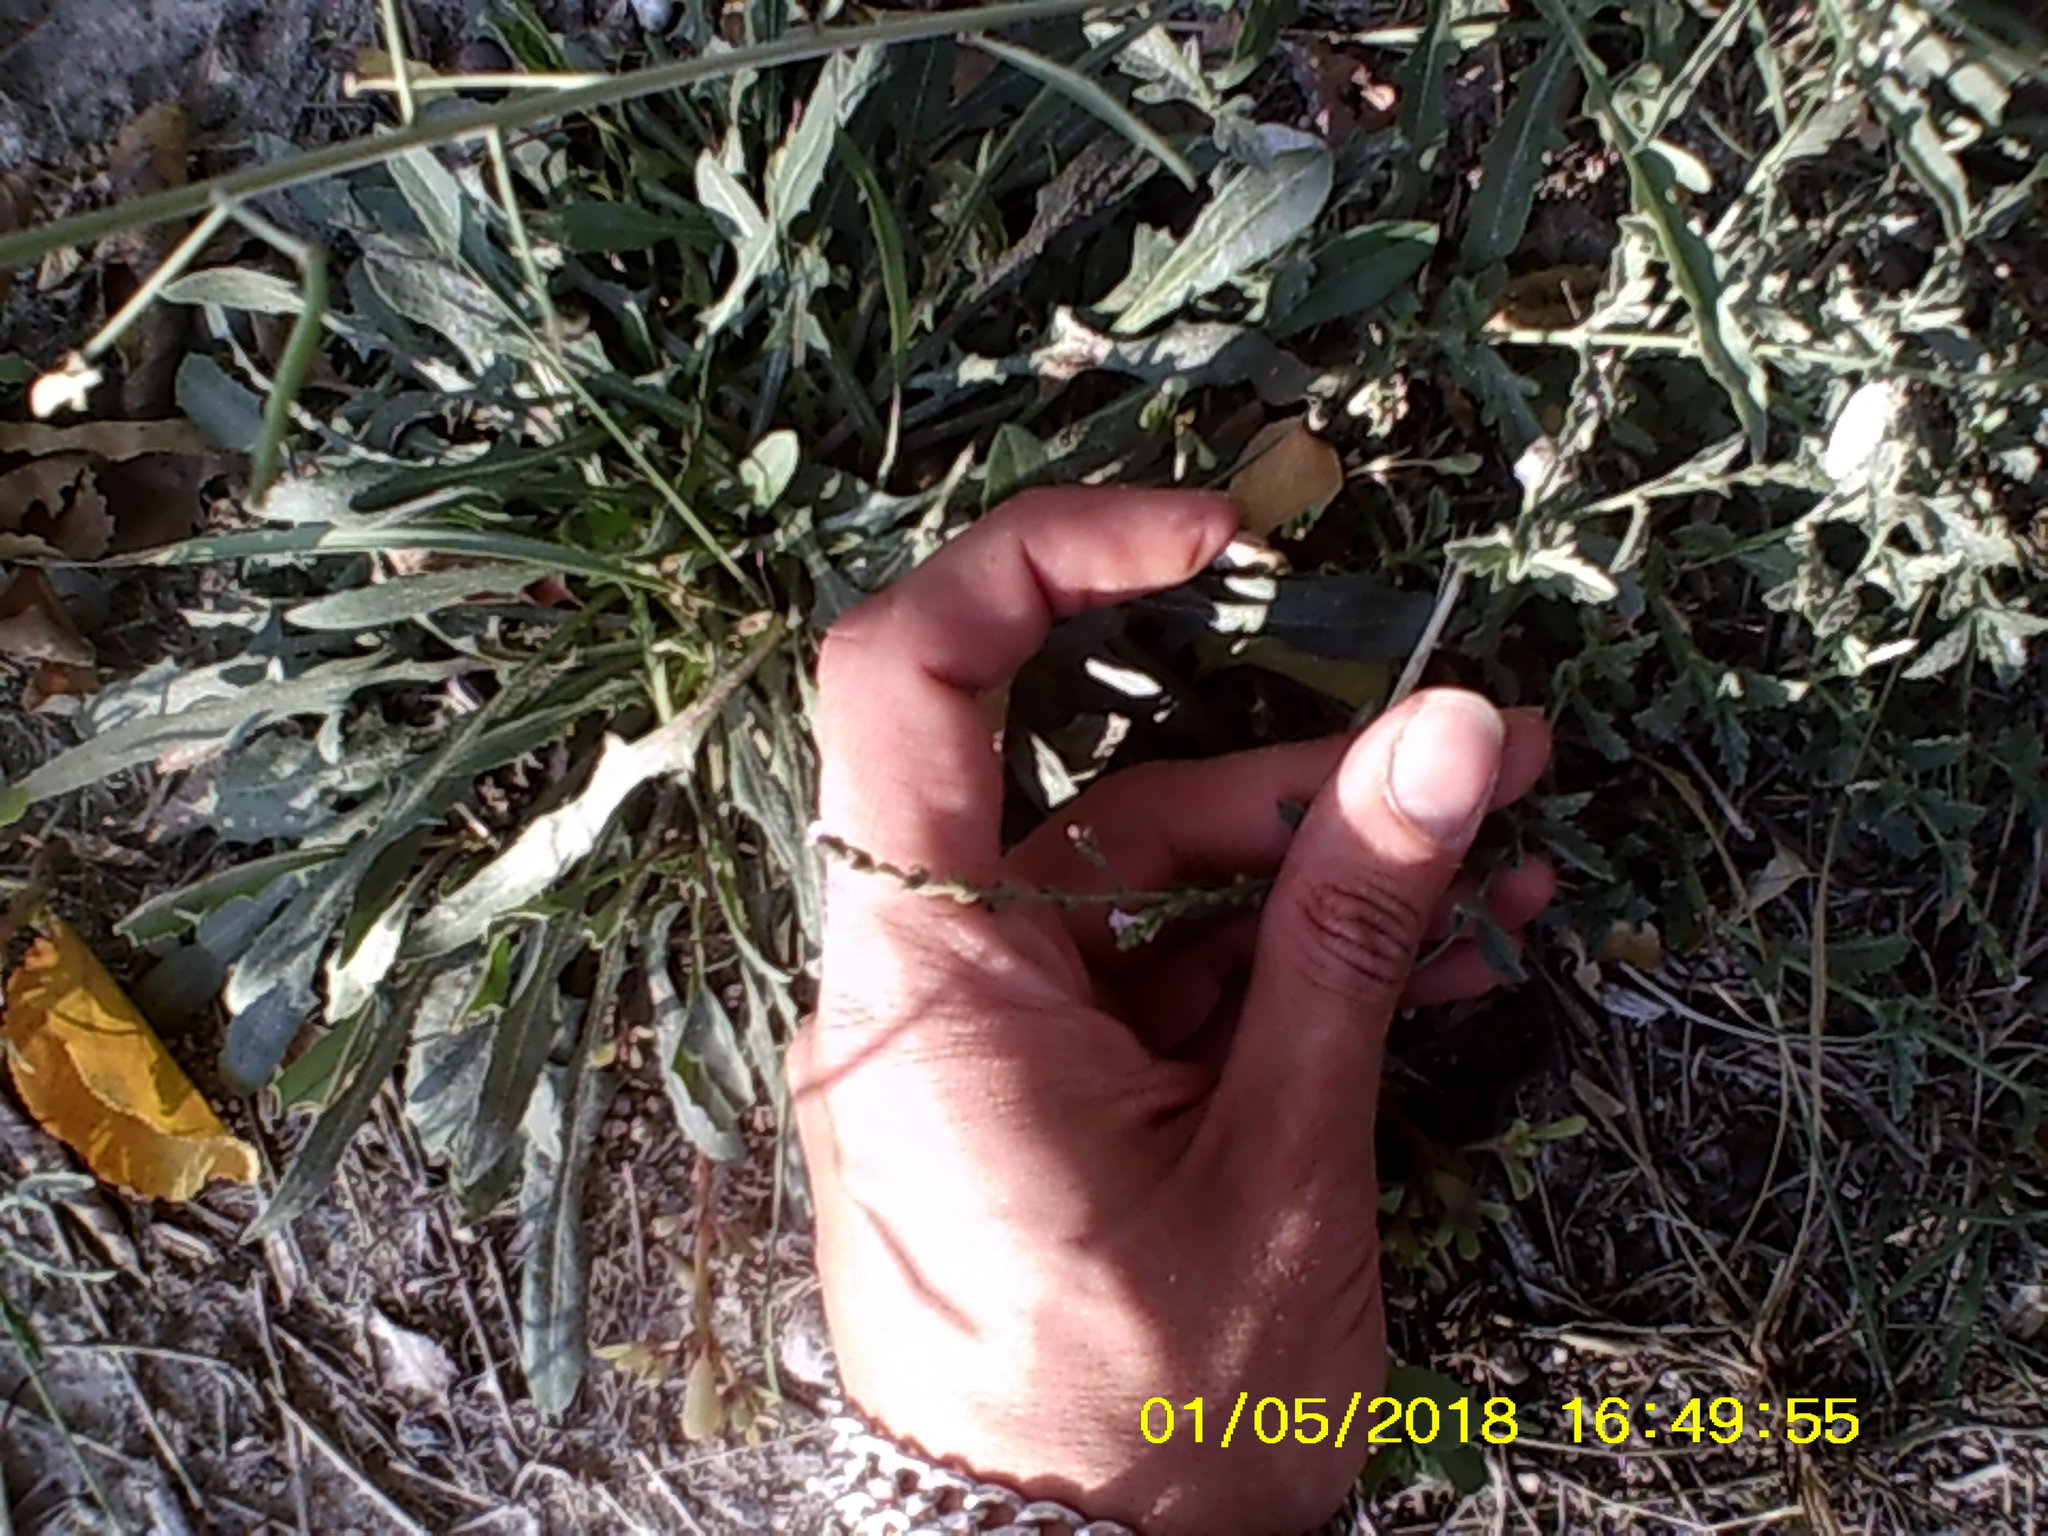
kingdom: Plantae
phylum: Tracheophyta
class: Magnoliopsida
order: Lamiales
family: Verbenaceae
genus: Verbena
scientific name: Verbena officinalis
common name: Vervain
